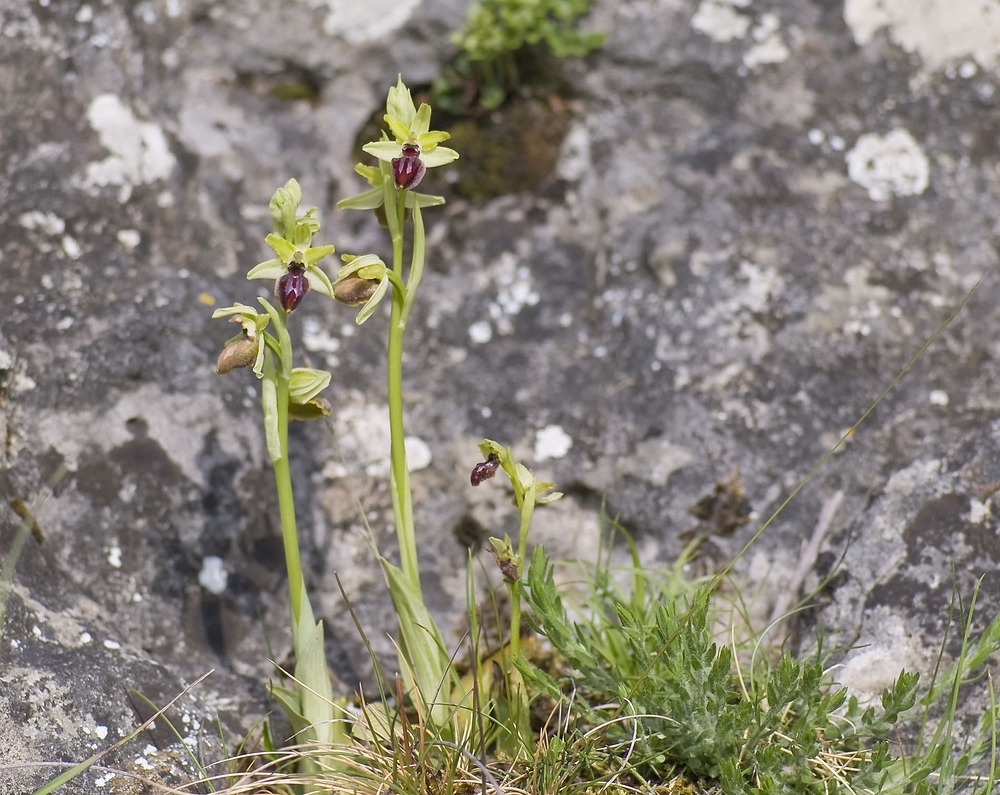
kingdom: Plantae
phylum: Tracheophyta
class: Liliopsida
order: Asparagales
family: Orchidaceae
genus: Ophrys
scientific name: Ophrys sphegodes
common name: Early spider-orchid
